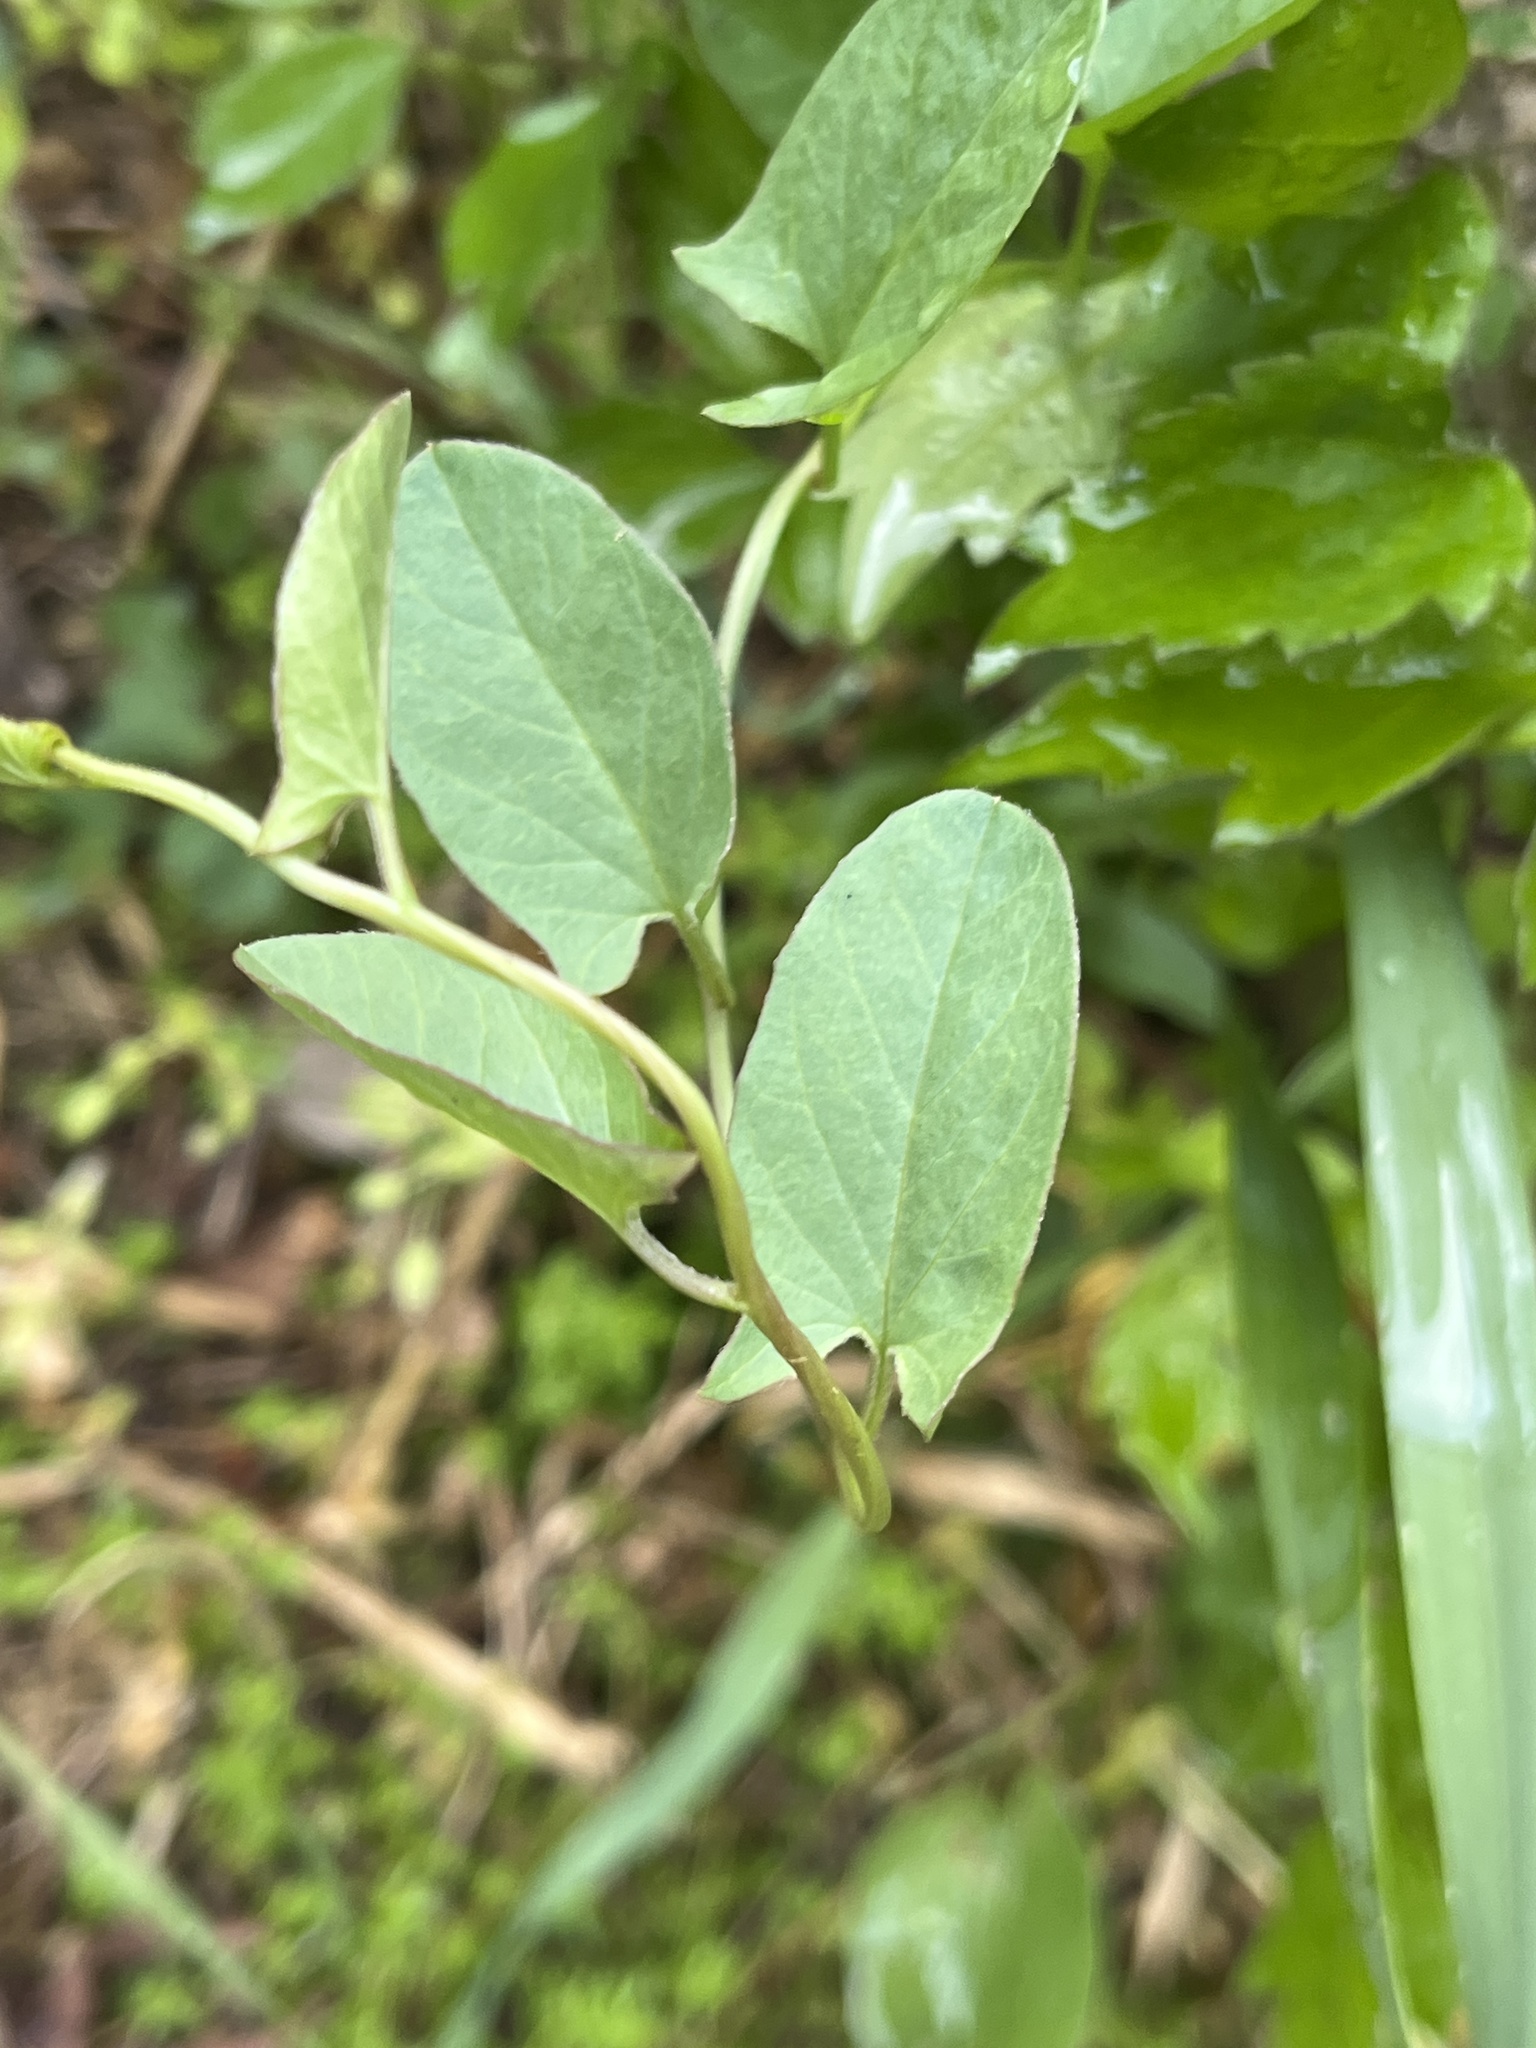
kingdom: Plantae
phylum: Tracheophyta
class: Magnoliopsida
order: Solanales
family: Convolvulaceae
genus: Convolvulus
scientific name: Convolvulus arvensis
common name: Field bindweed
